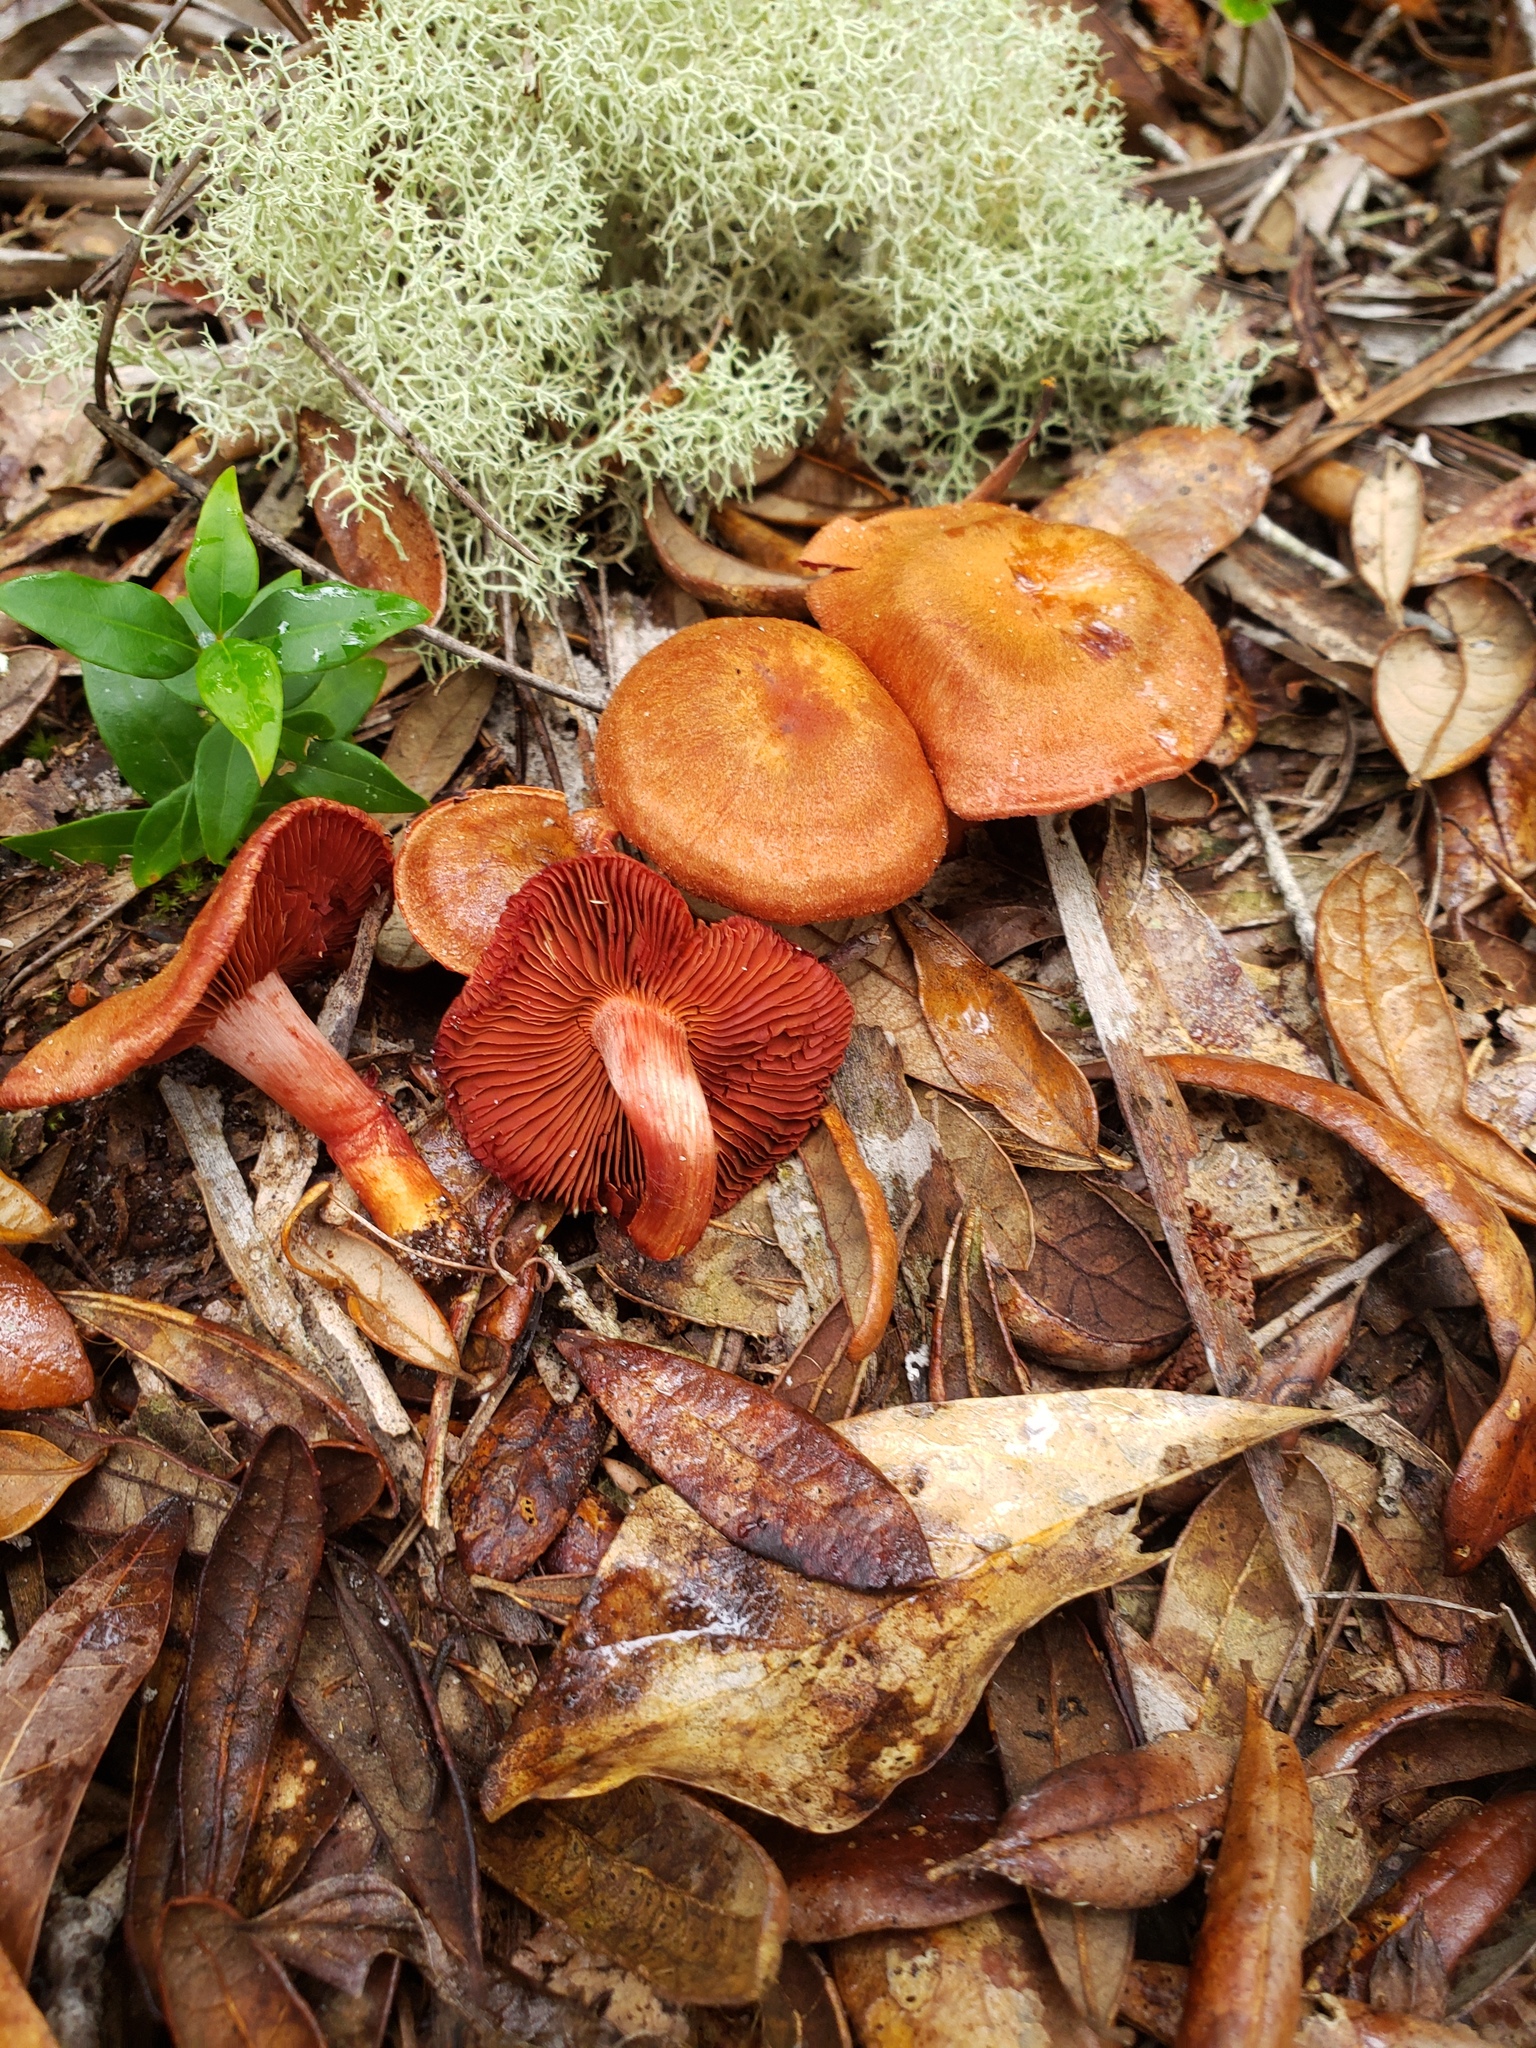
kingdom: Fungi
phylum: Basidiomycota
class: Agaricomycetes
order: Agaricales
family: Cortinariaceae
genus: Cortinarius
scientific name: Cortinarius marylandensis
